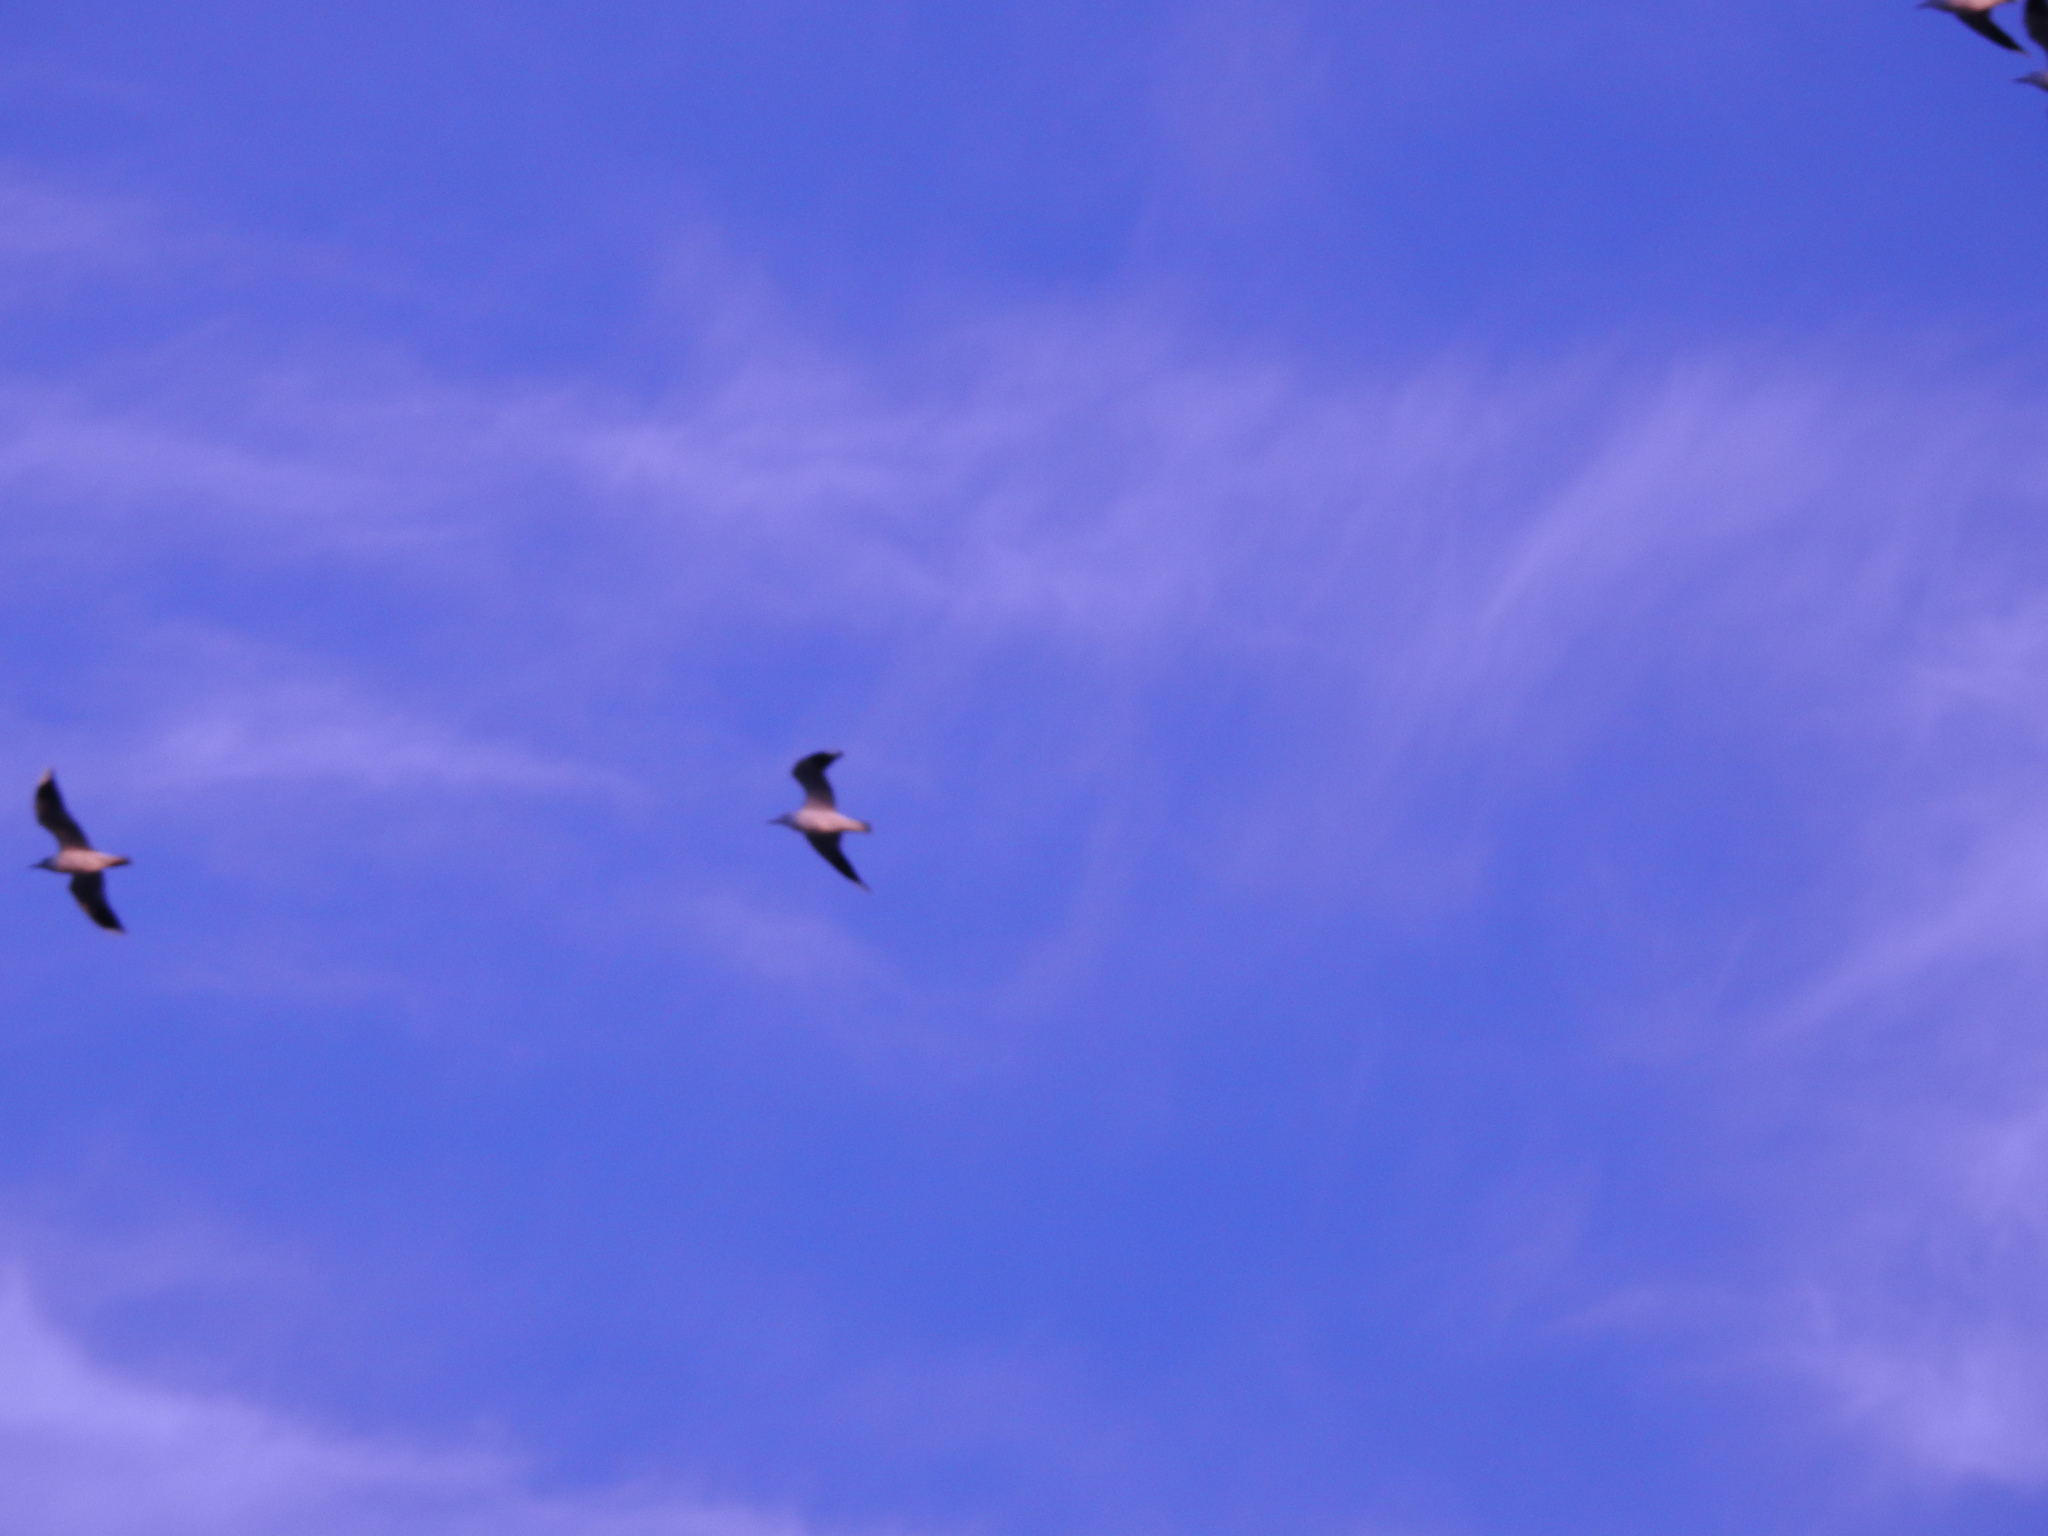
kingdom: Animalia
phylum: Chordata
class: Aves
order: Charadriiformes
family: Laridae
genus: Chroicocephalus
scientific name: Chroicocephalus maculipennis
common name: Brown-hooded gull
